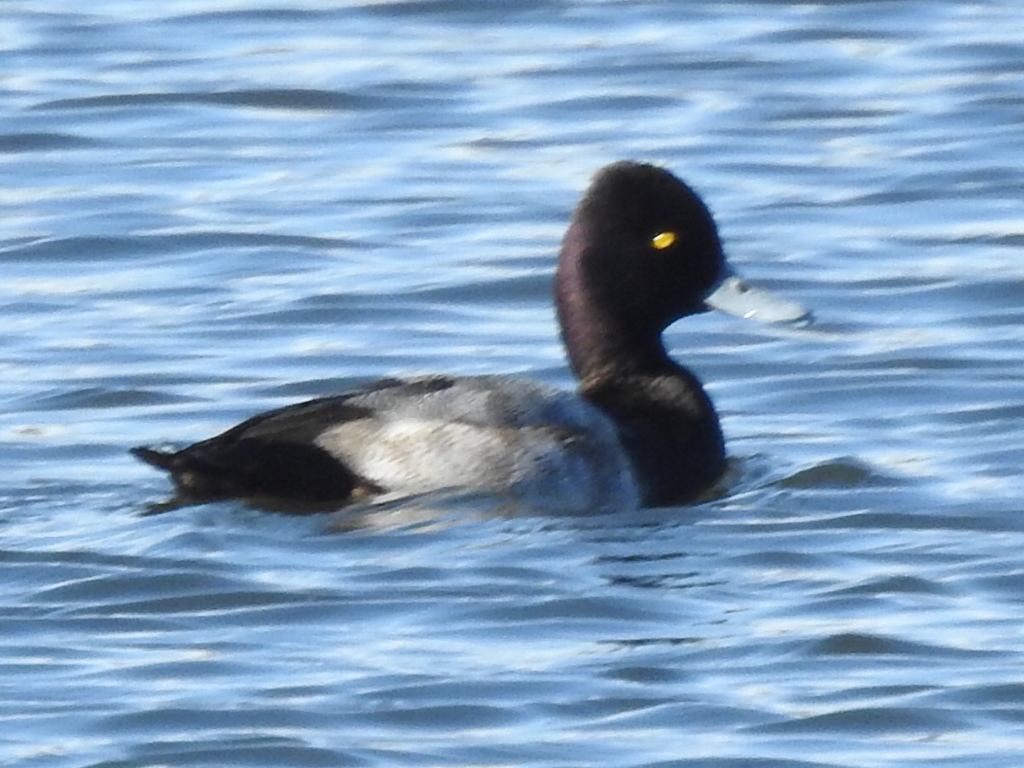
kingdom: Animalia
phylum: Chordata
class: Aves
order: Anseriformes
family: Anatidae
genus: Aythya
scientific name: Aythya affinis
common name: Lesser scaup
